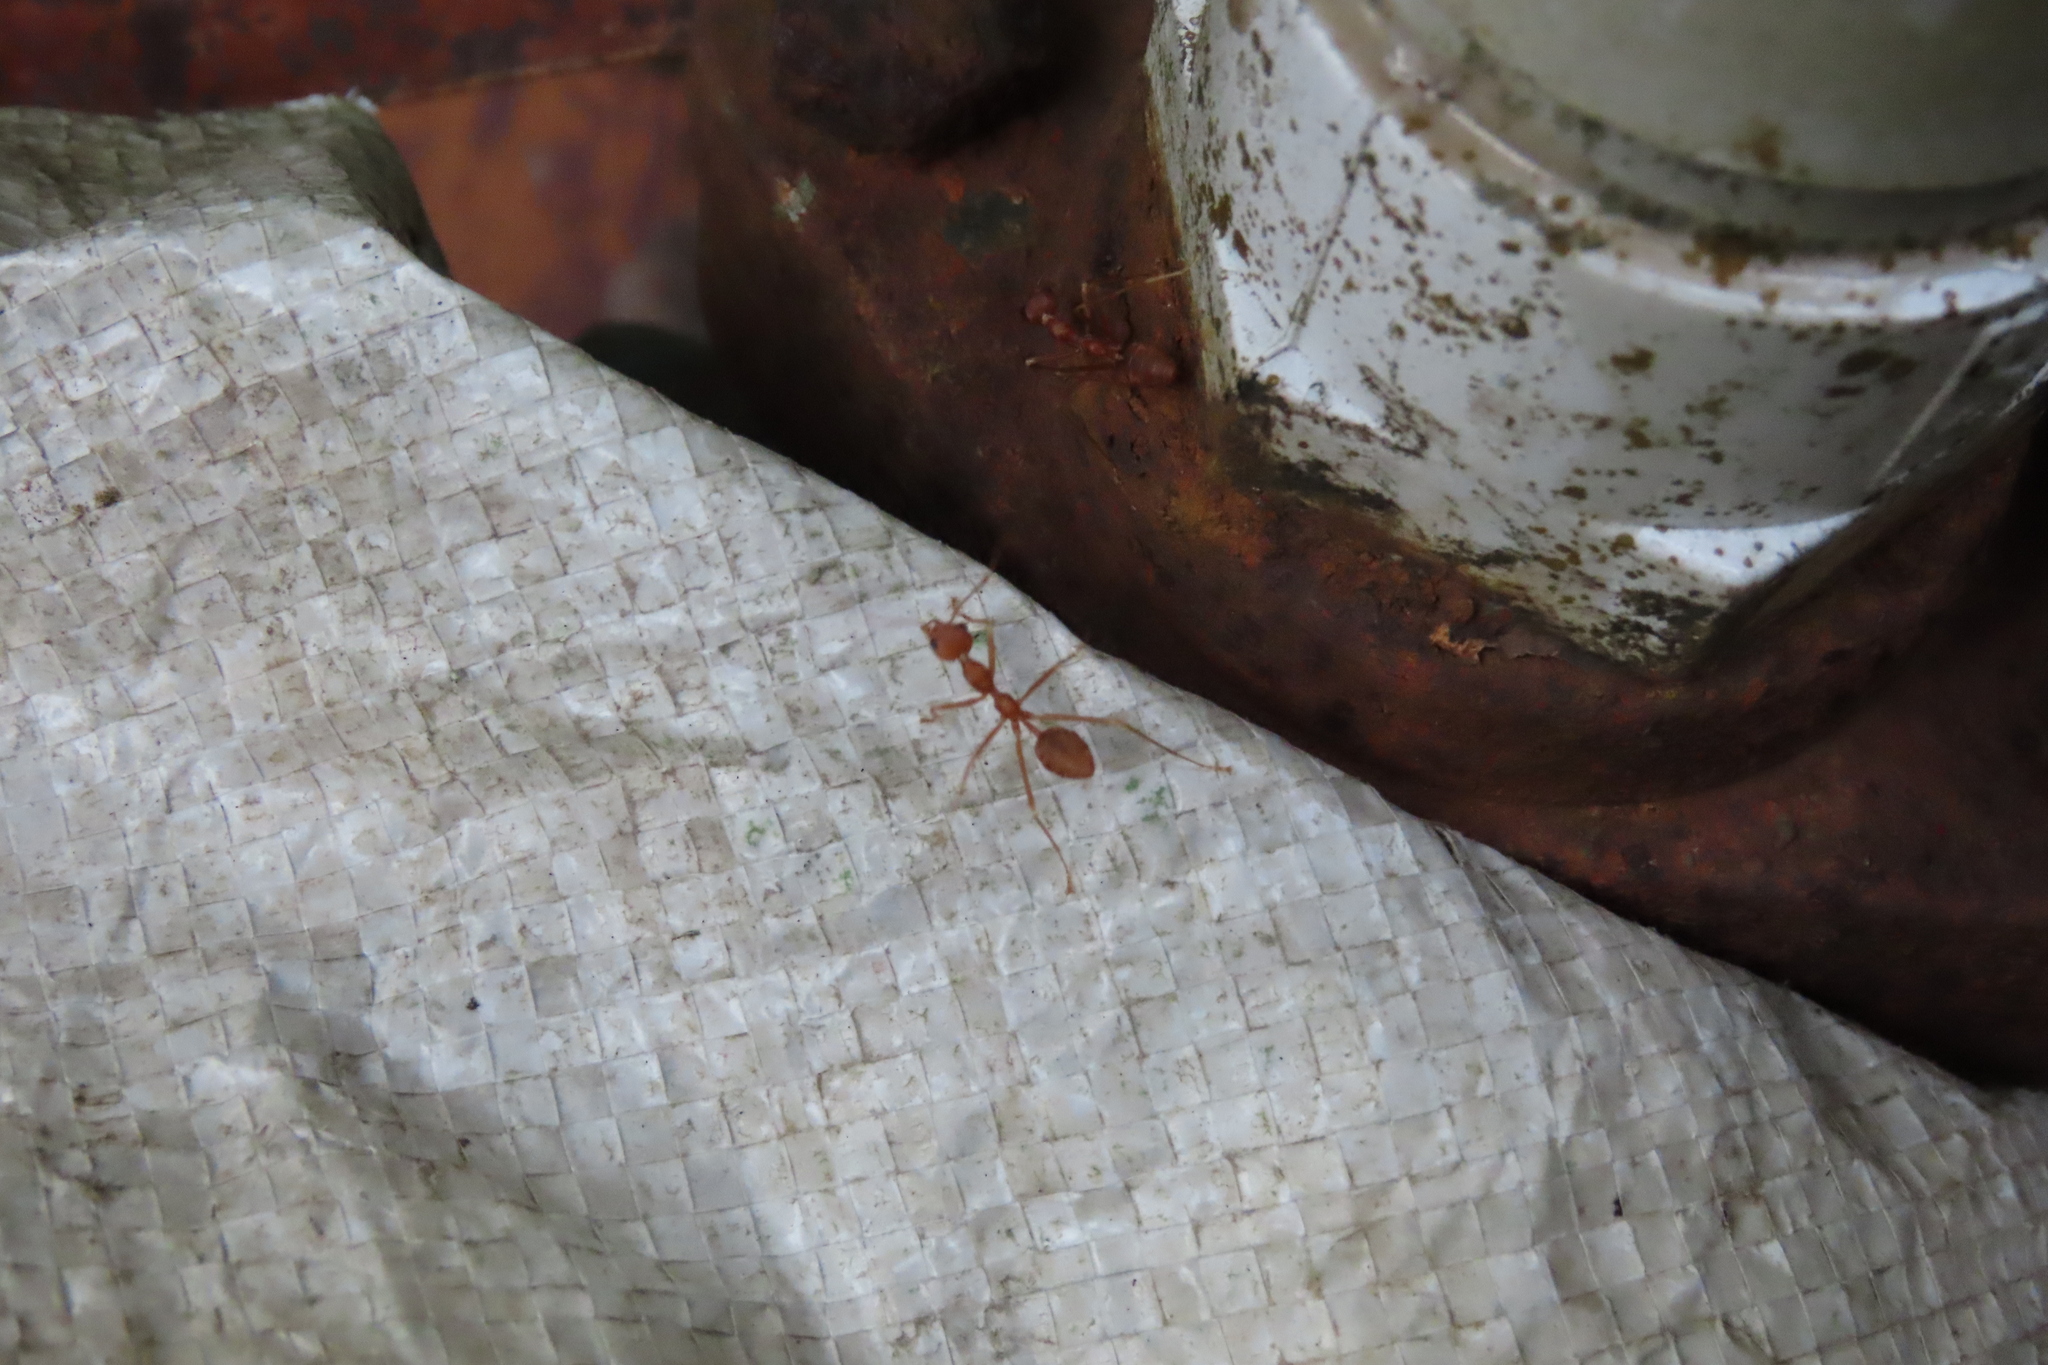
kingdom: Animalia
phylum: Arthropoda
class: Insecta
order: Hymenoptera
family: Formicidae
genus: Oecophylla
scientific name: Oecophylla smaragdina
